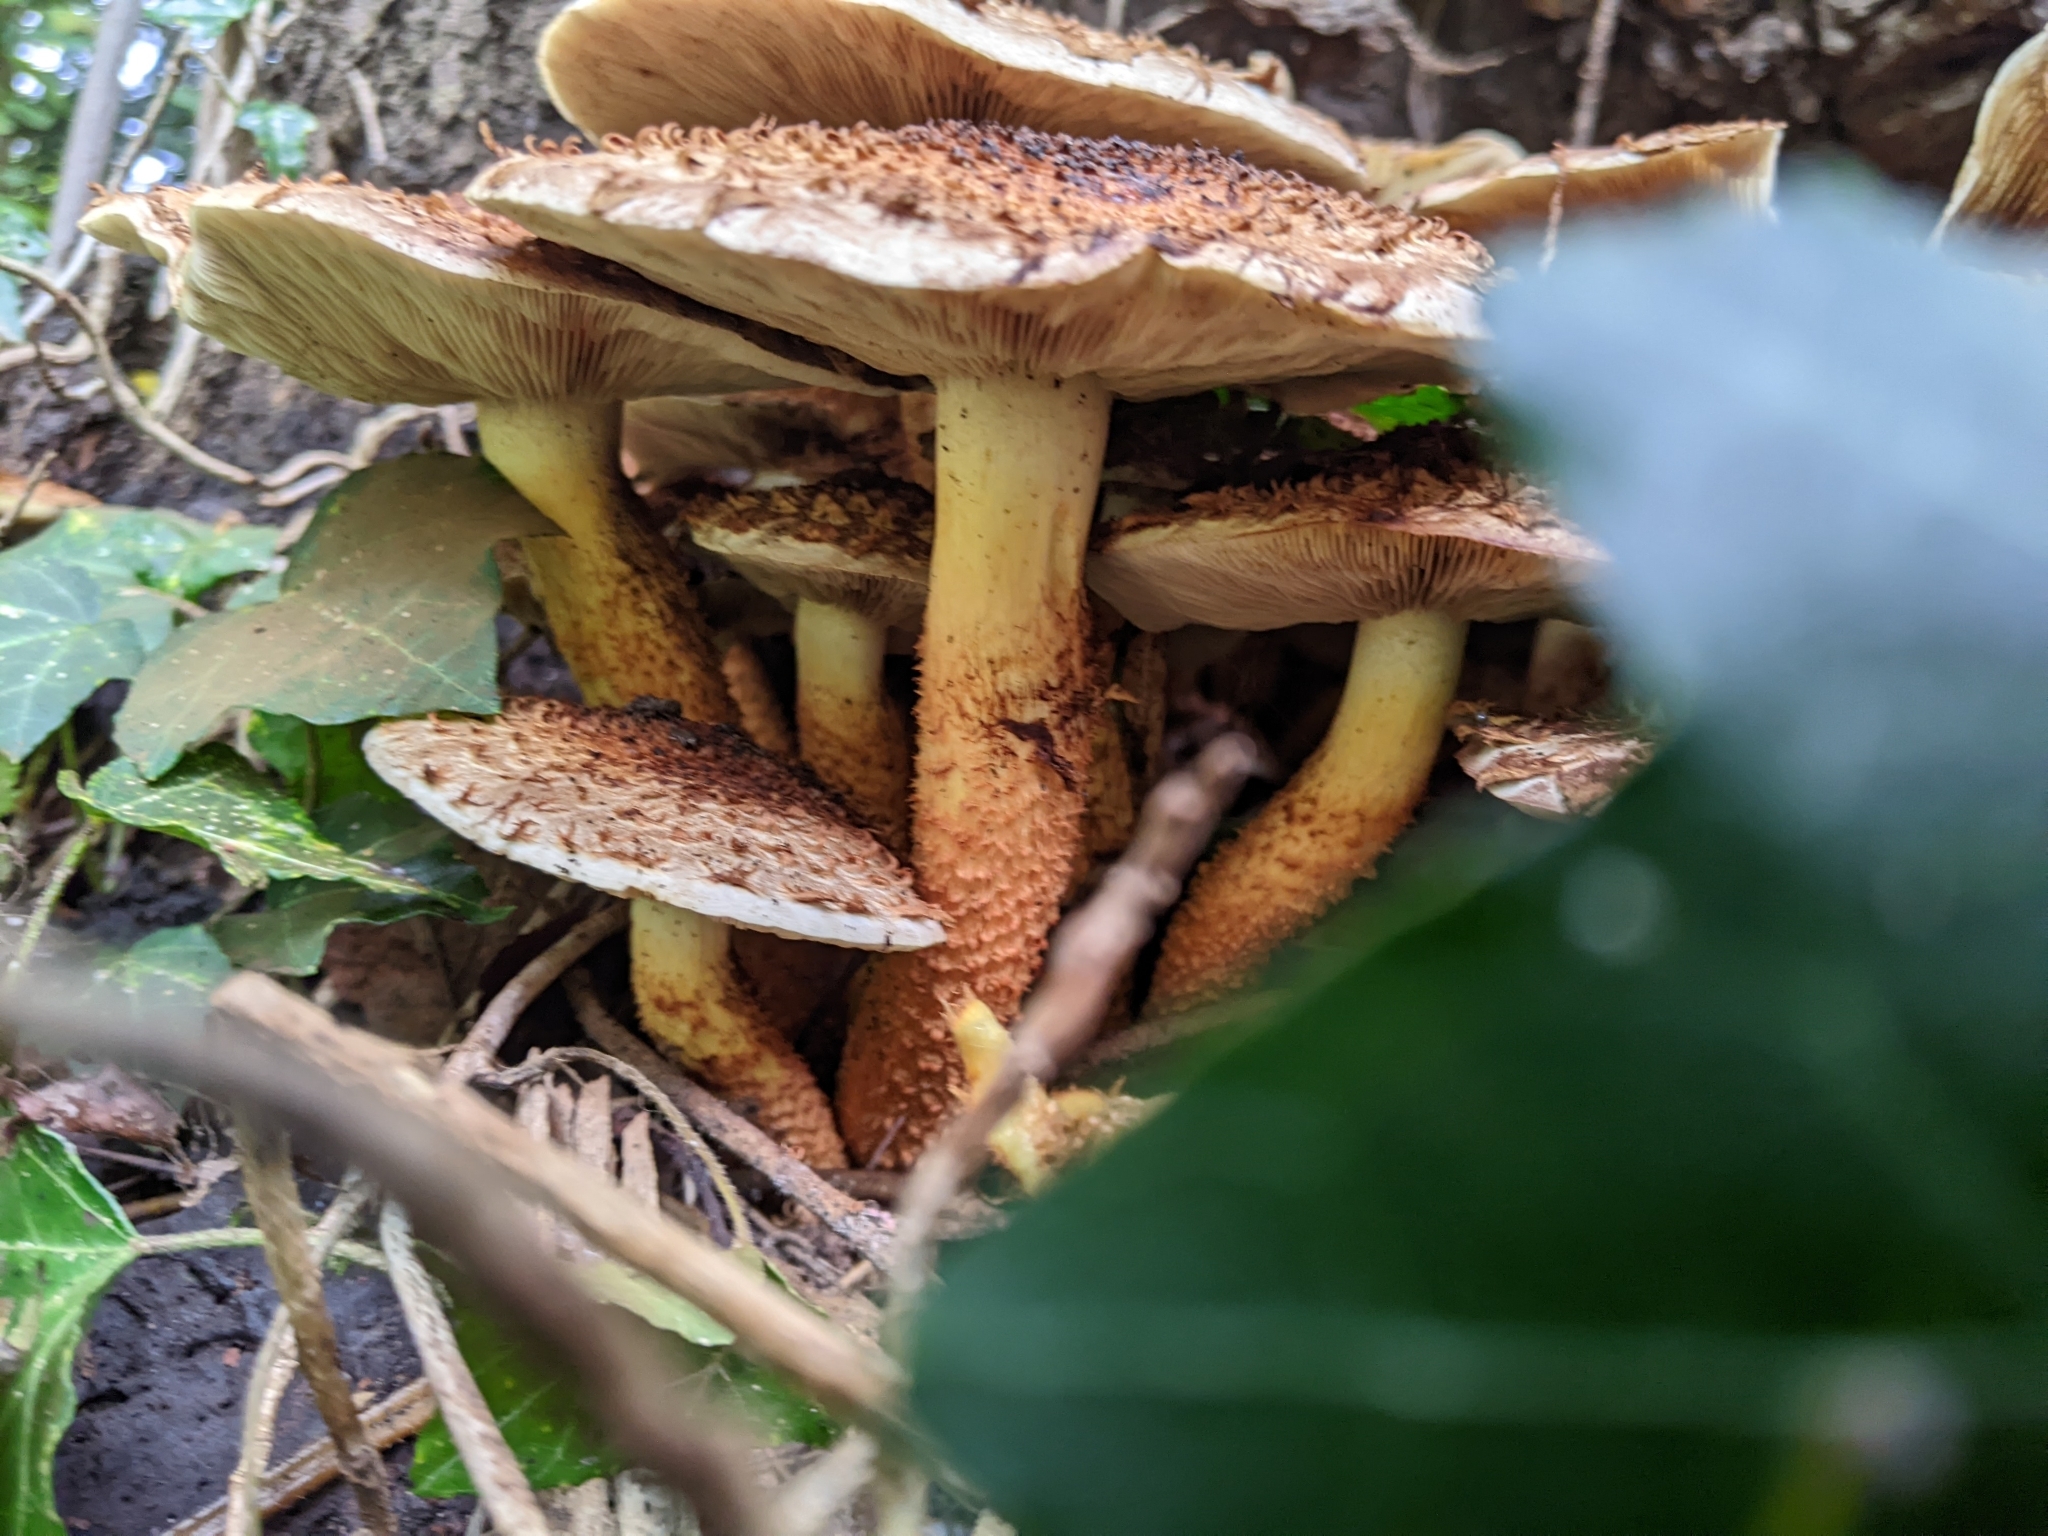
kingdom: Fungi
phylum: Basidiomycota
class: Agaricomycetes
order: Agaricales
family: Strophariaceae
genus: Pholiota
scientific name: Pholiota squarrosa
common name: Shaggy pholiota
